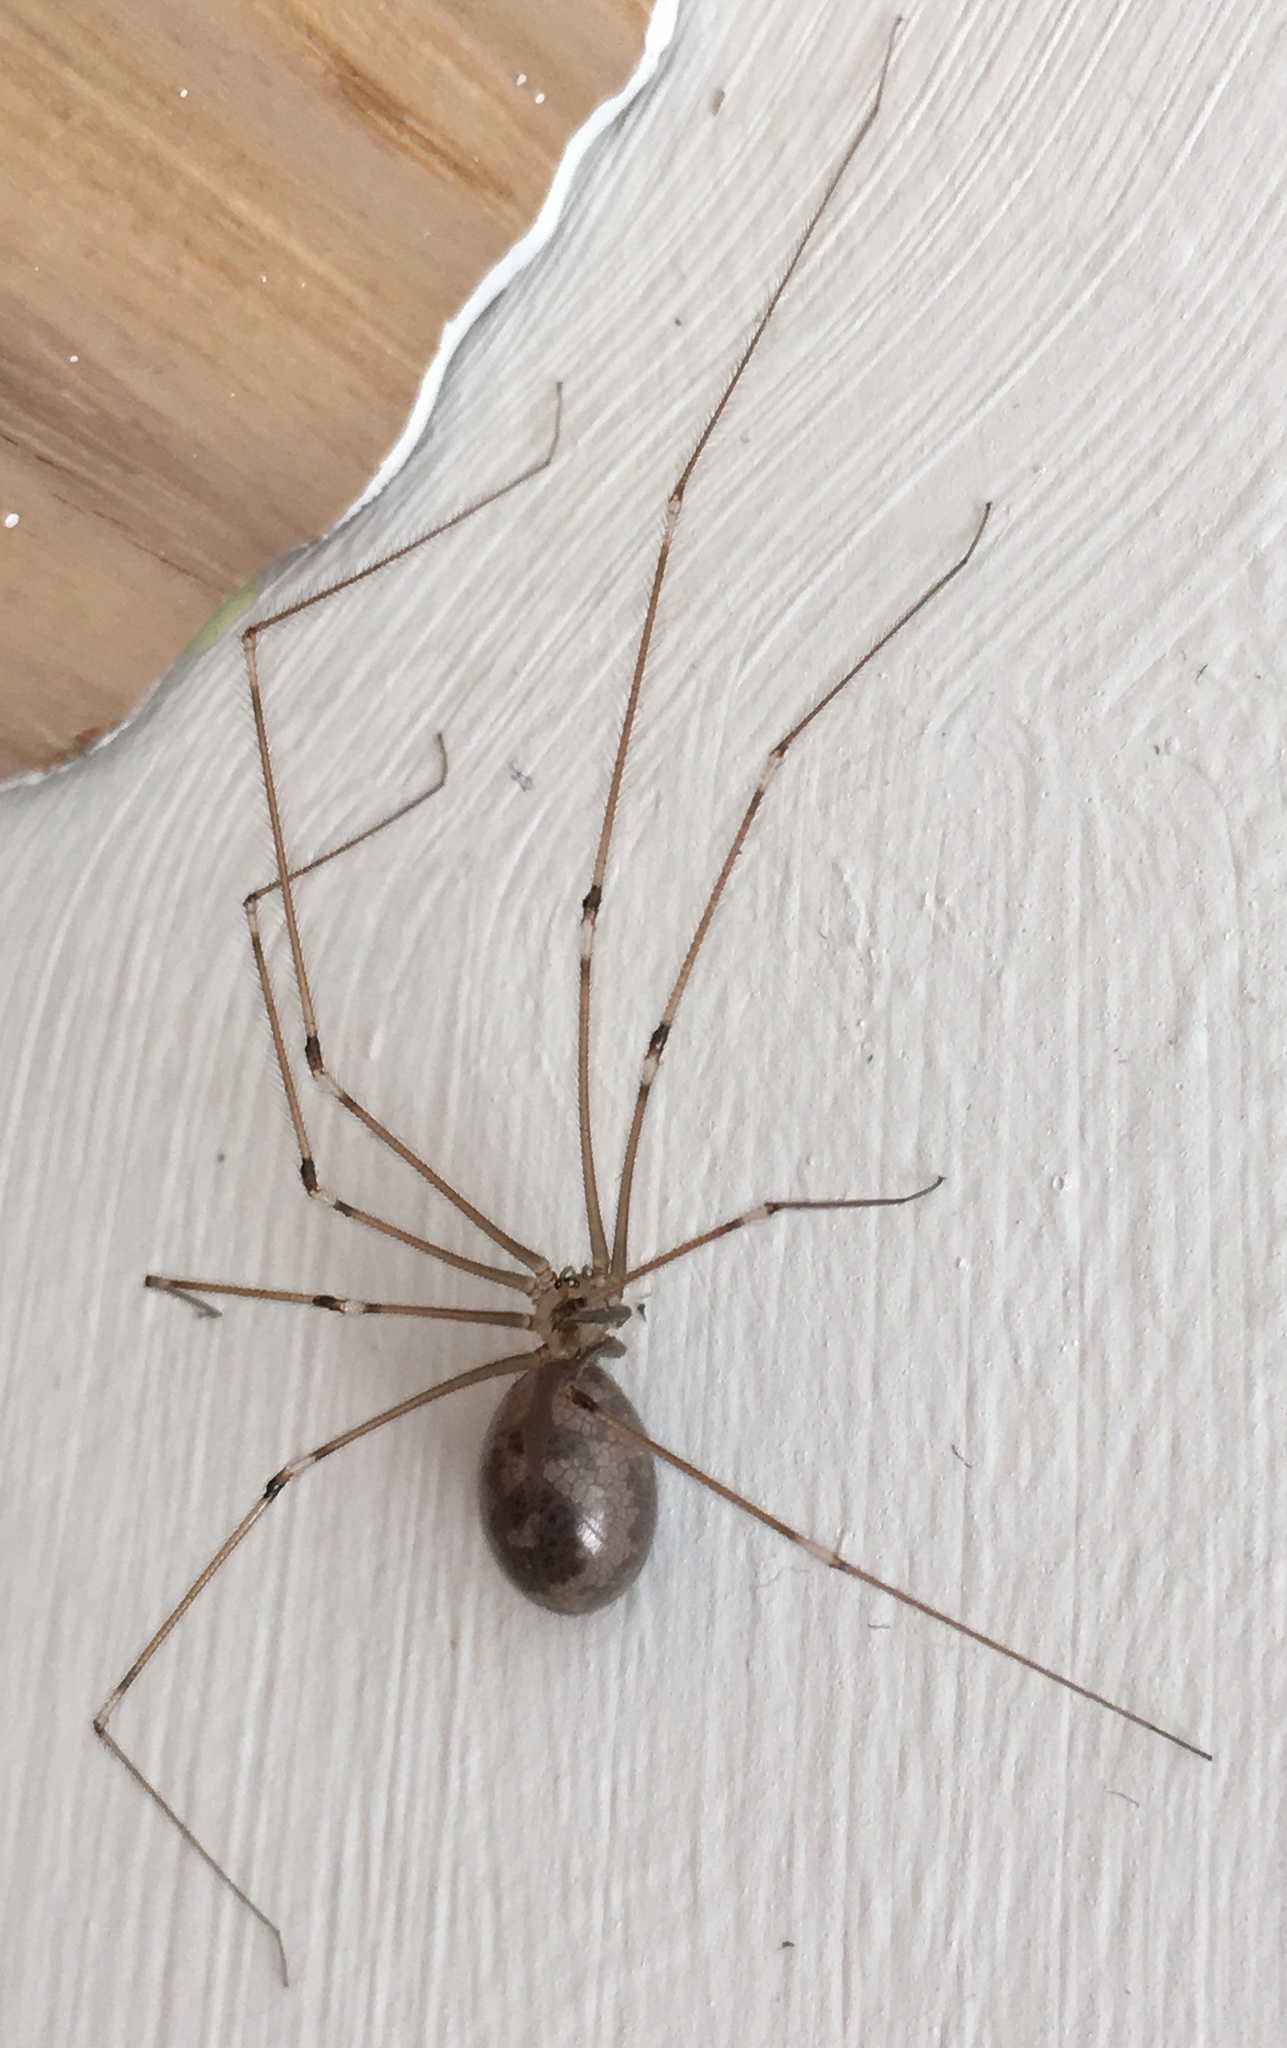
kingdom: Animalia
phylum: Arthropoda
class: Arachnida
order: Araneae
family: Pholcidae
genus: Pholcus
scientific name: Pholcus phalangioides
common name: Longbodied cellar spider
